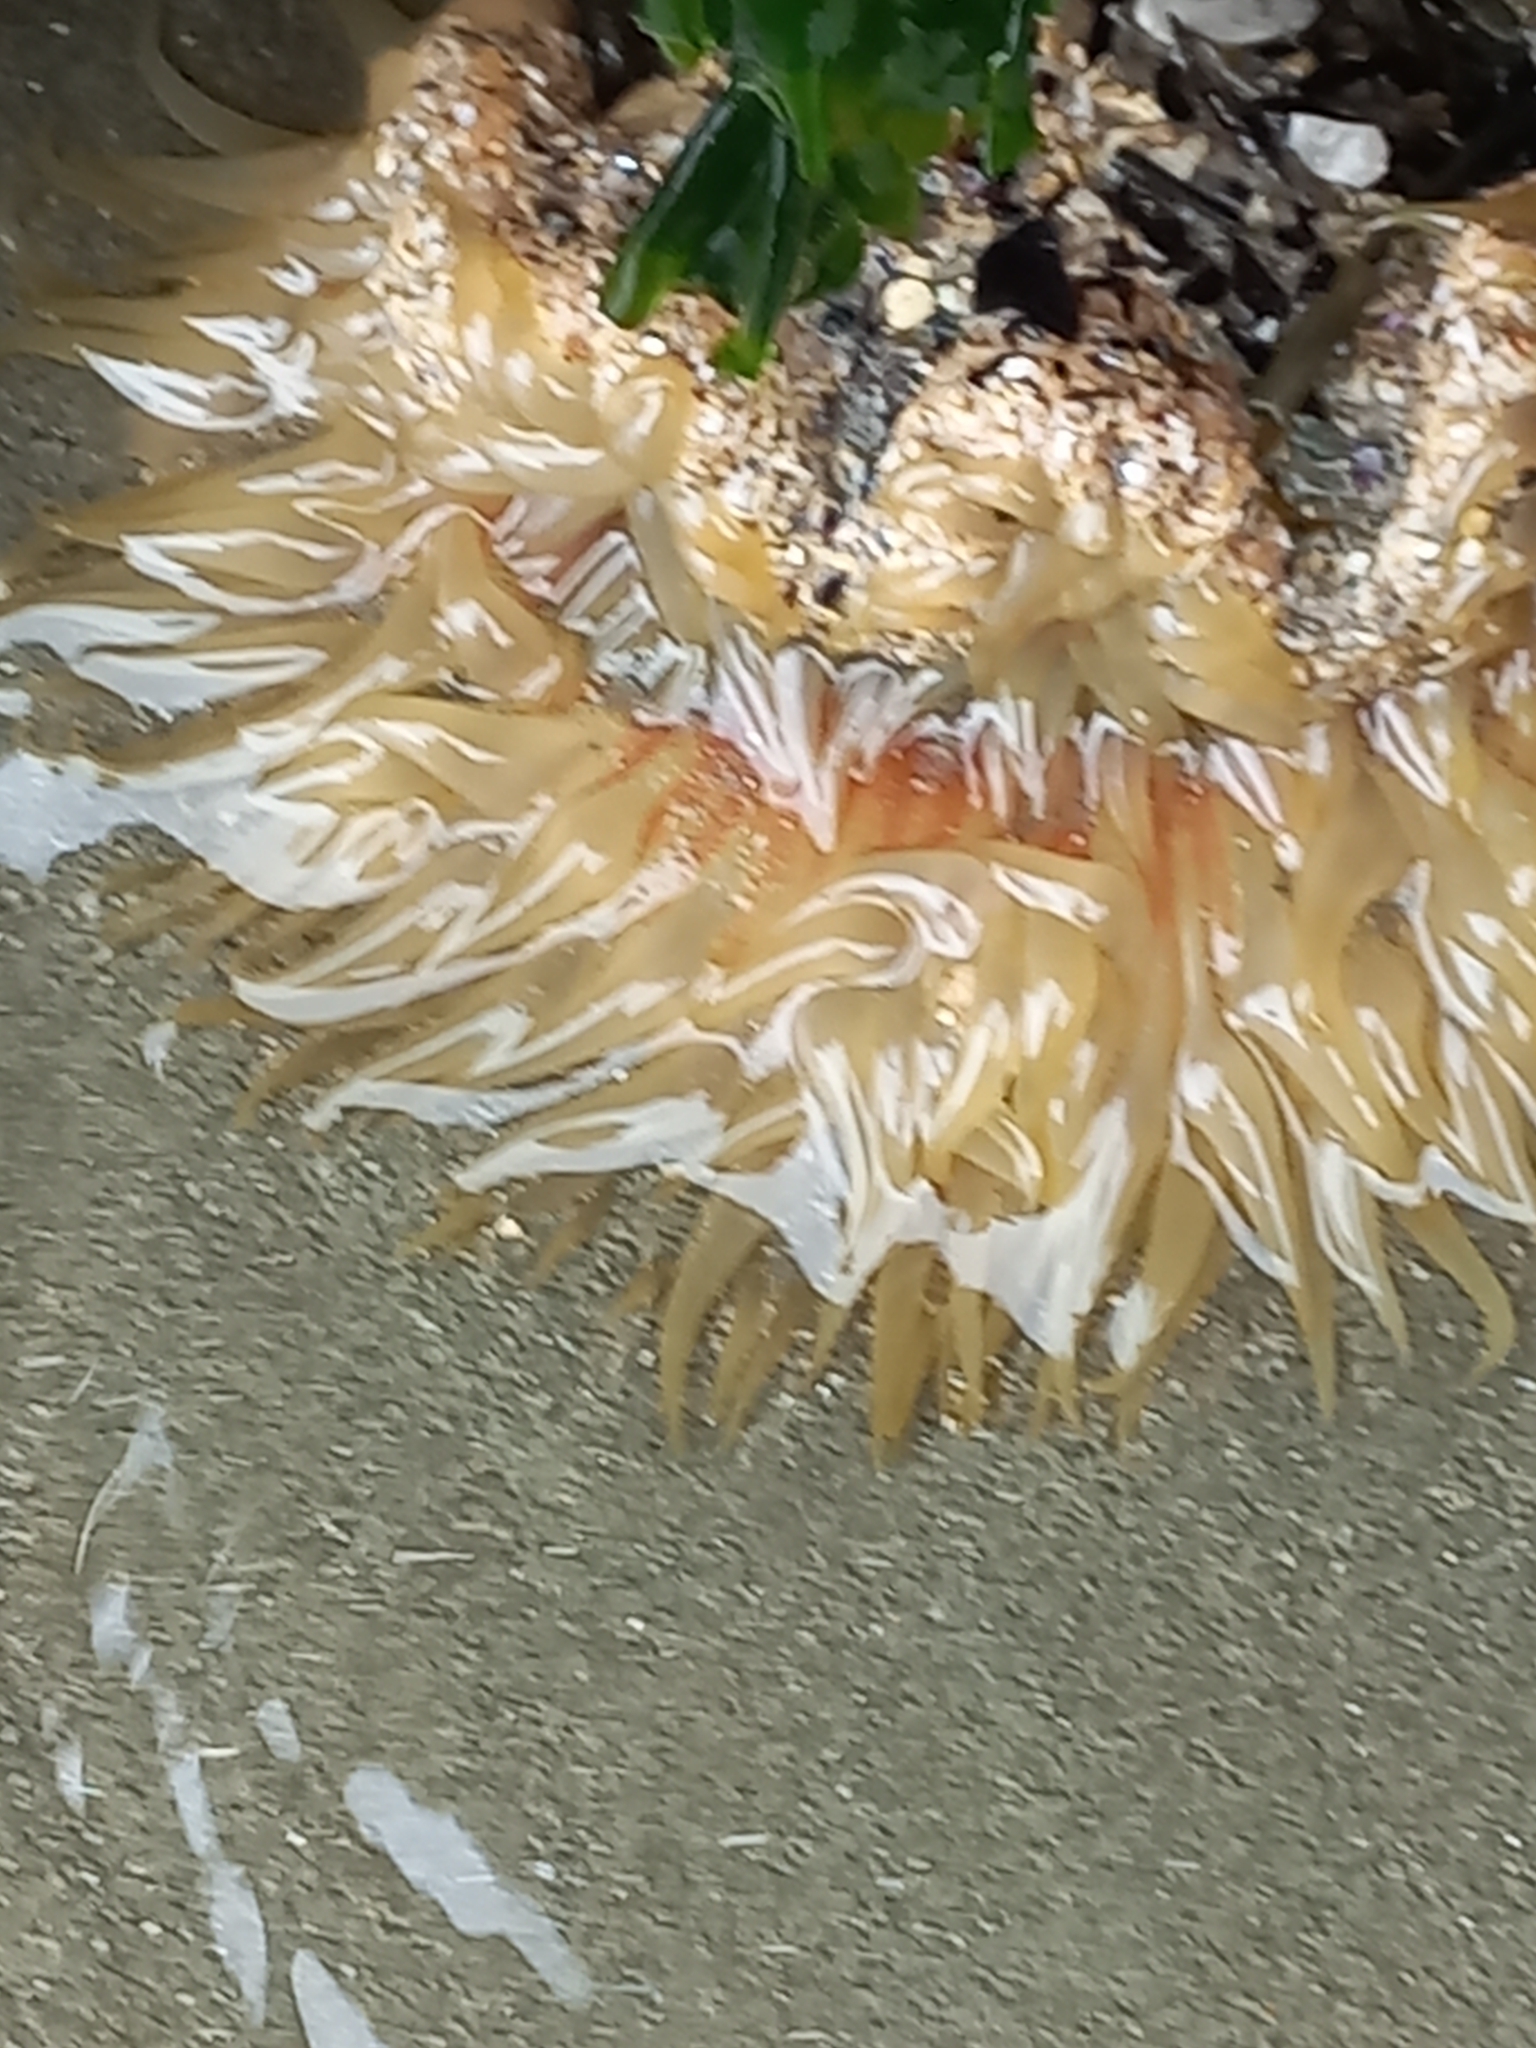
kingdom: Animalia
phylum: Cnidaria
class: Anthozoa
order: Actiniaria
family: Actiniidae
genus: Oulactis
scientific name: Oulactis magna
